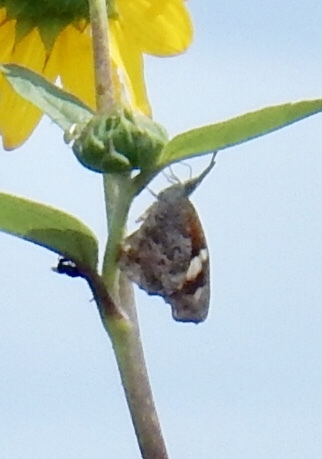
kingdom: Animalia
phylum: Arthropoda
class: Insecta
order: Lepidoptera
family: Nymphalidae
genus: Libytheana
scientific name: Libytheana carinenta
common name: American snout
